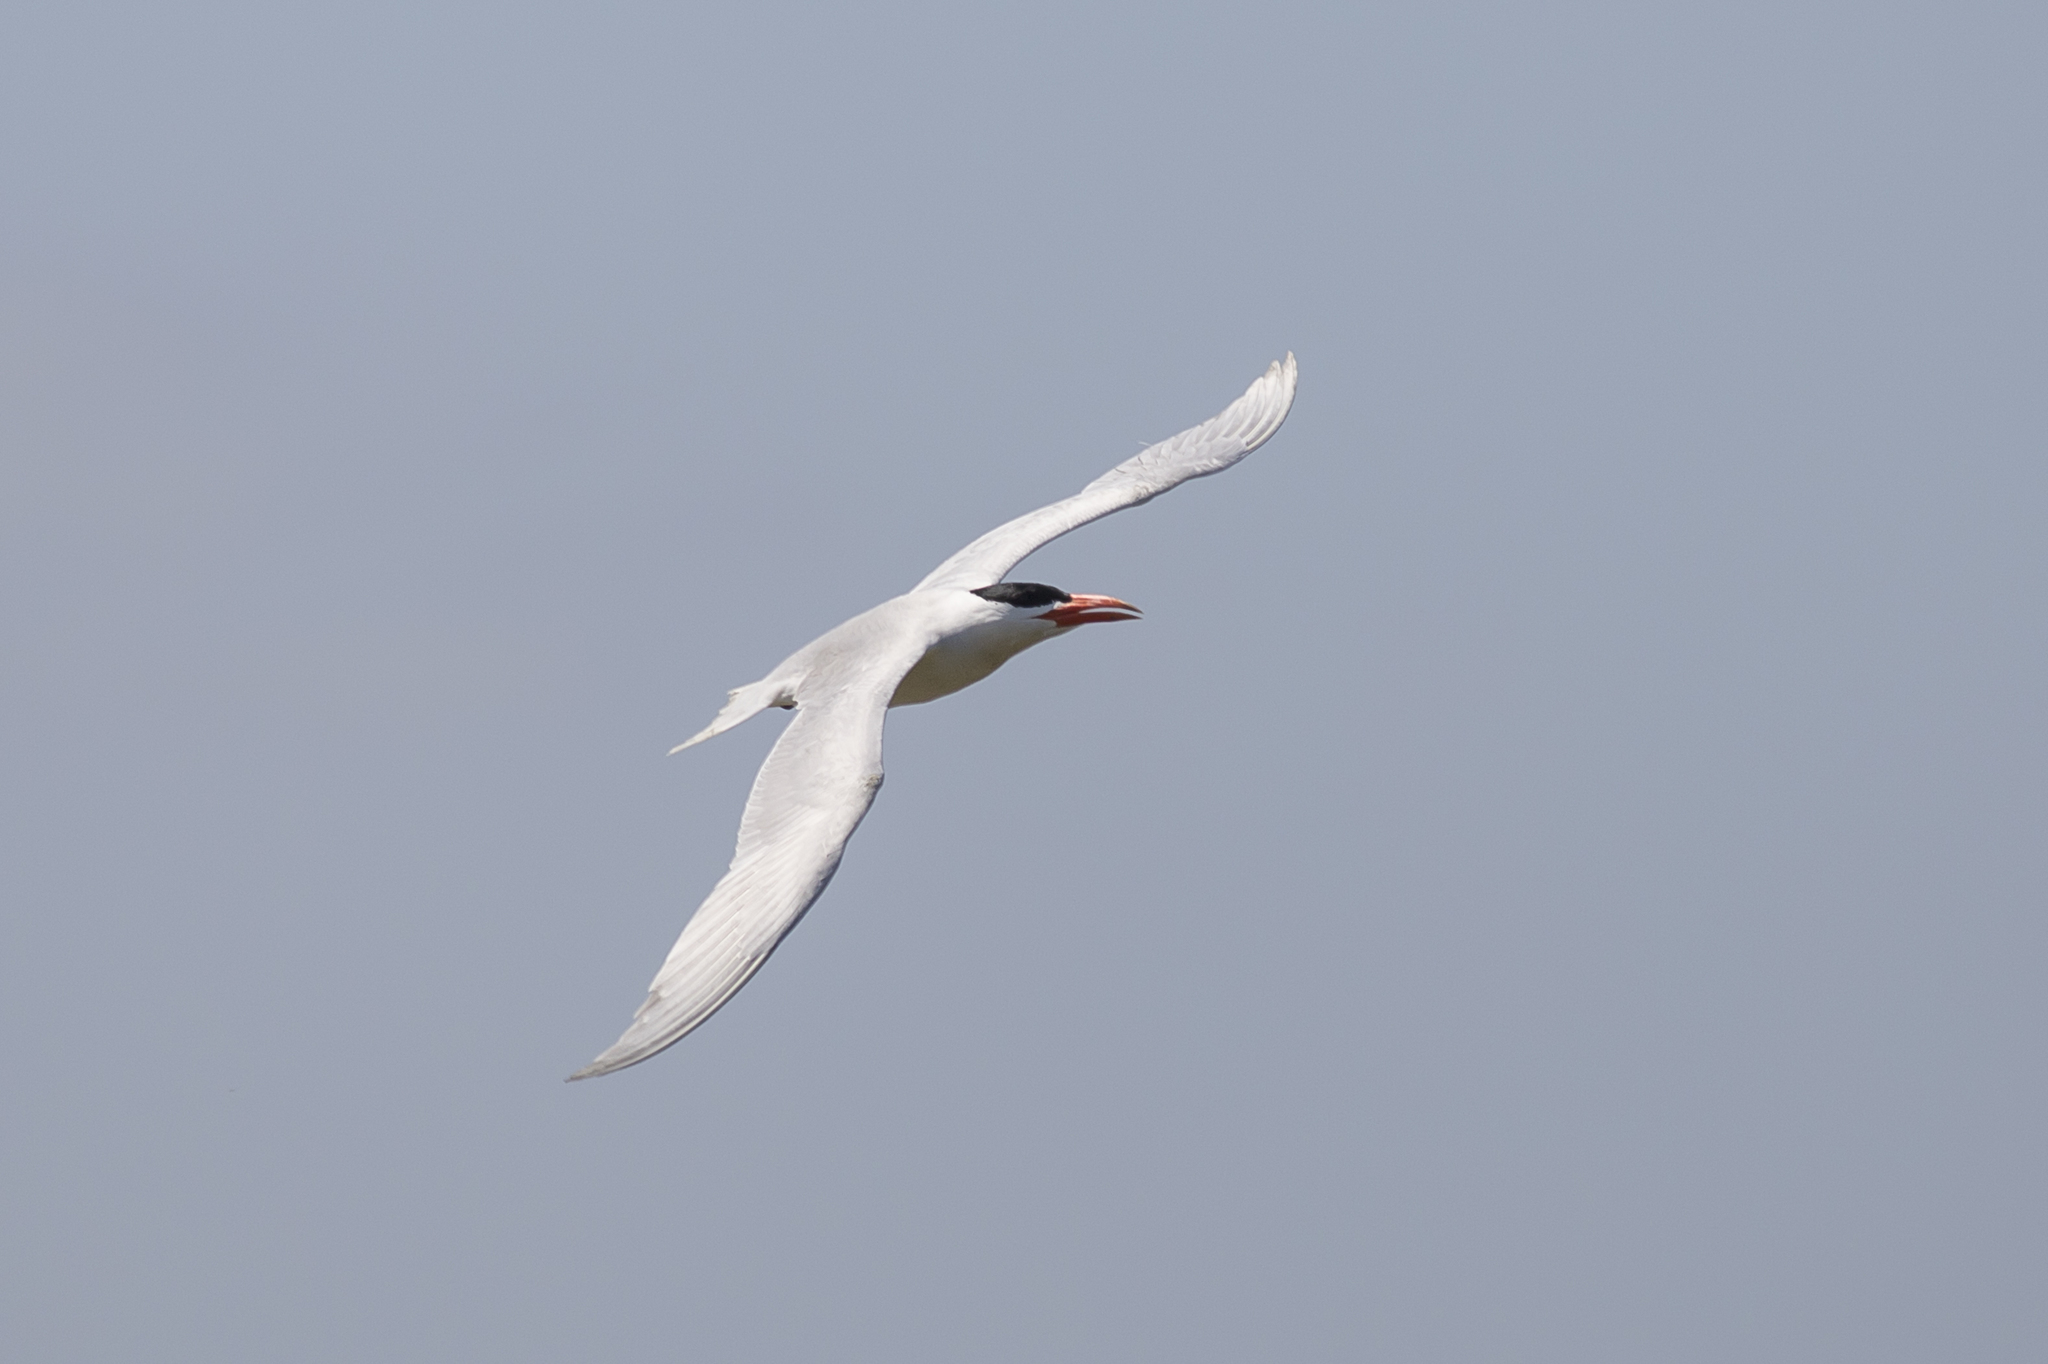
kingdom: Animalia
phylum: Chordata
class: Aves
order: Charadriiformes
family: Laridae
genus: Hydroprogne
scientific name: Hydroprogne caspia
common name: Caspian tern
